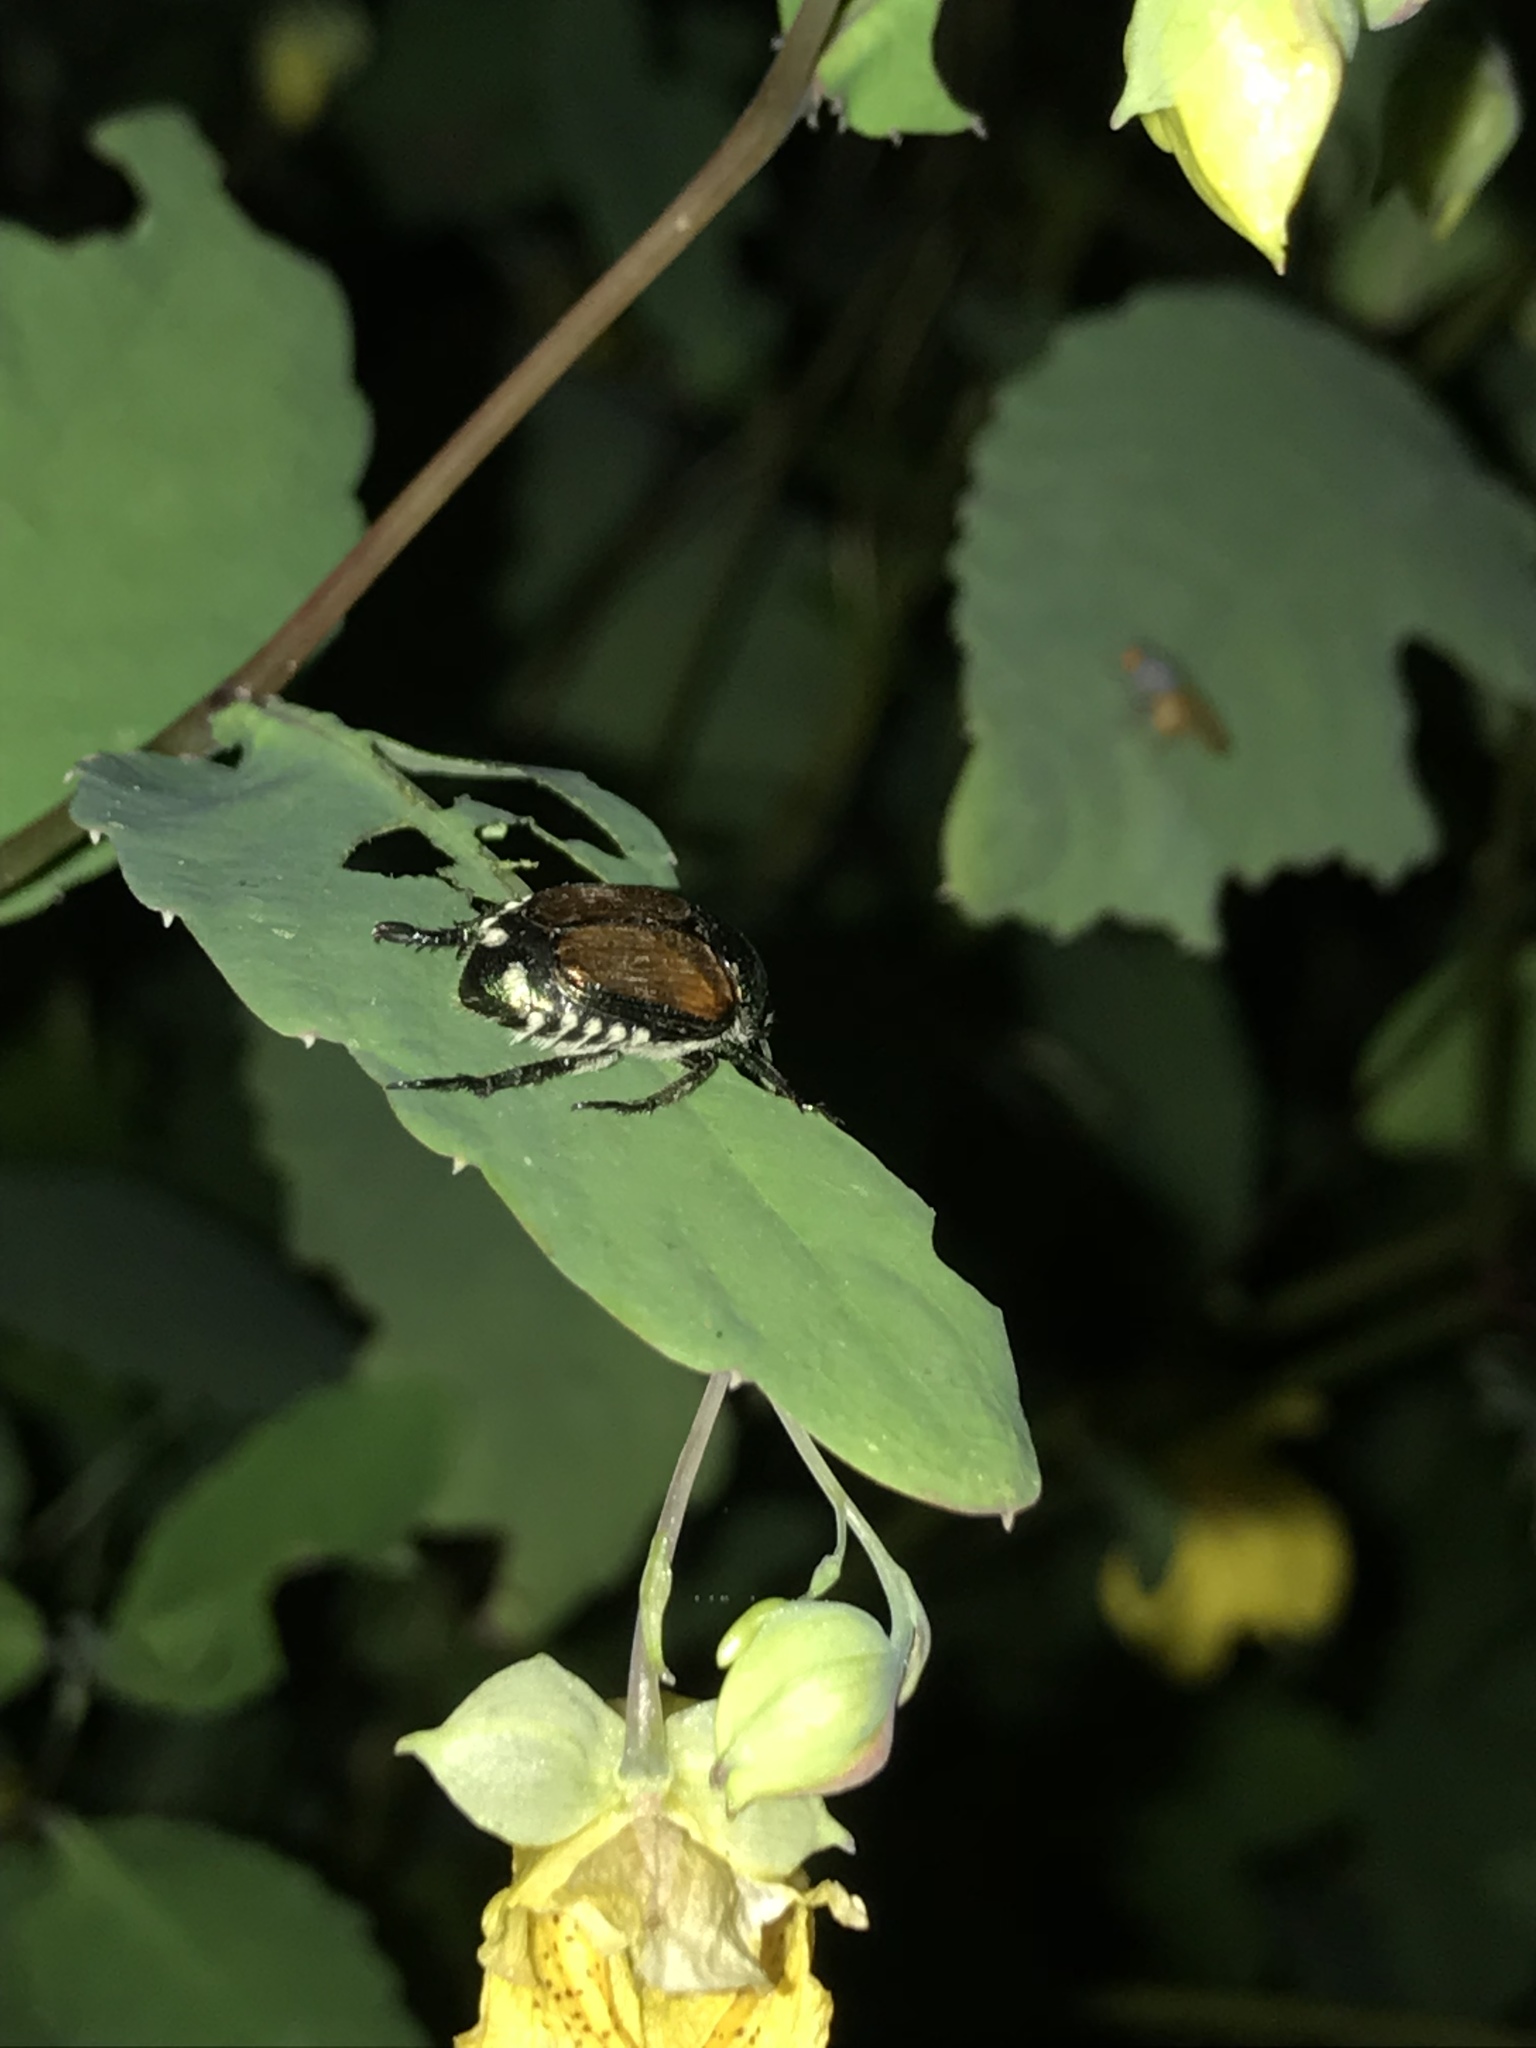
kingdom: Animalia
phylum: Arthropoda
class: Insecta
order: Coleoptera
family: Scarabaeidae
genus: Popillia
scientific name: Popillia japonica
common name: Japanese beetle
